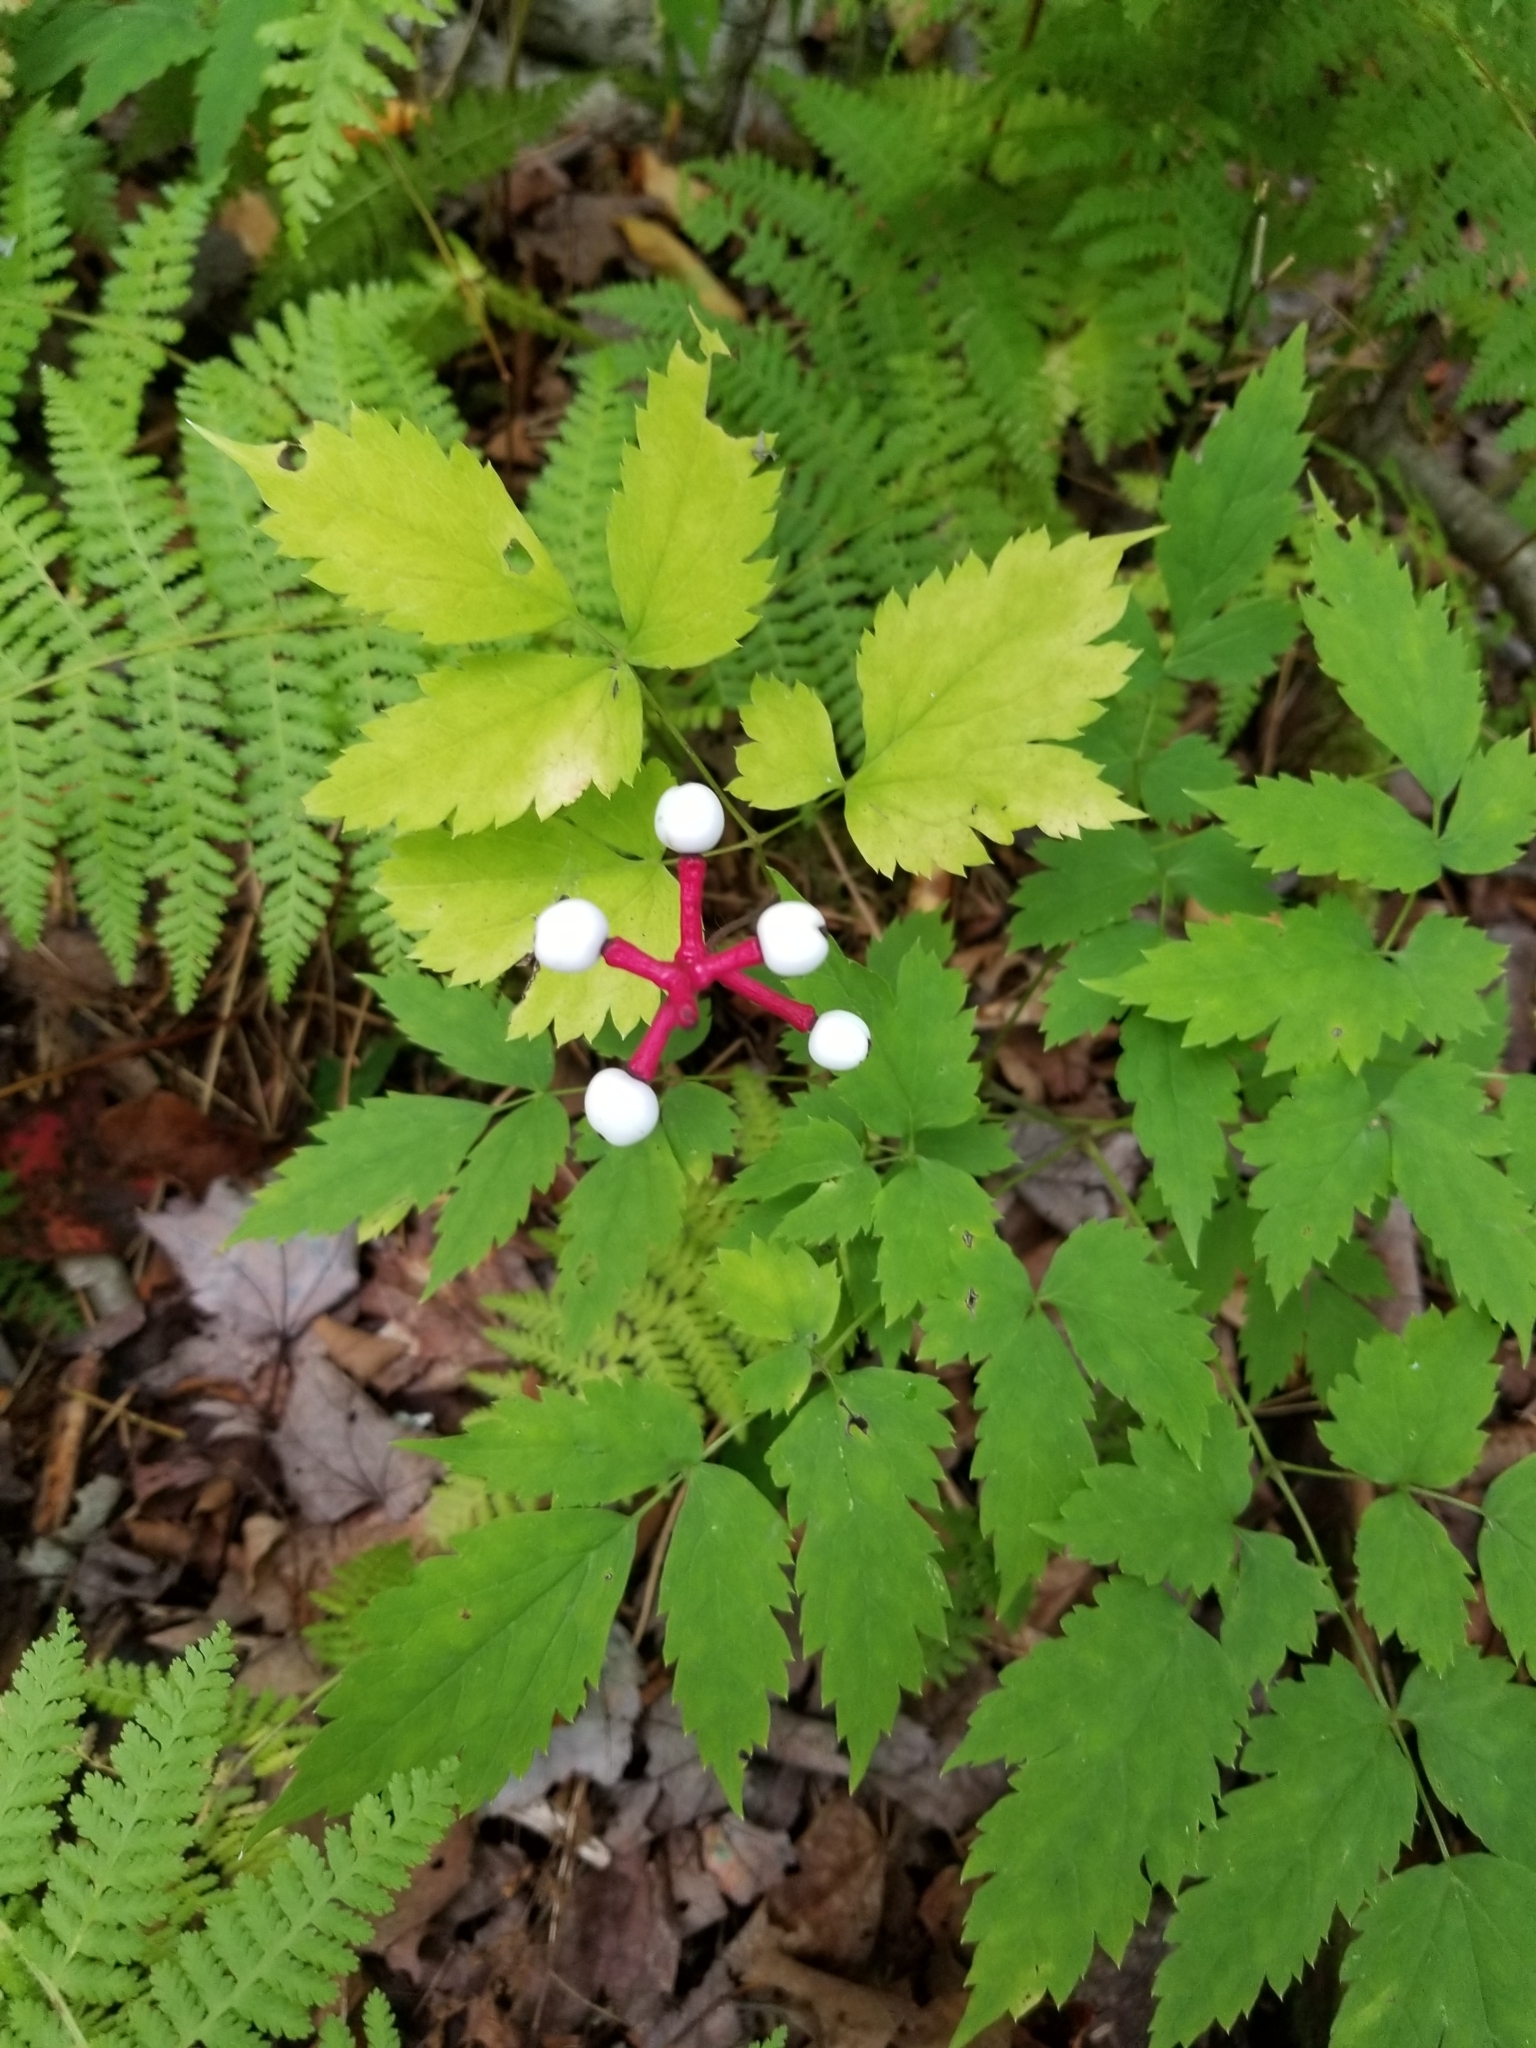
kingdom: Plantae
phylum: Tracheophyta
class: Magnoliopsida
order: Ranunculales
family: Ranunculaceae
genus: Actaea
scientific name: Actaea pachypoda
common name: Doll's-eyes
